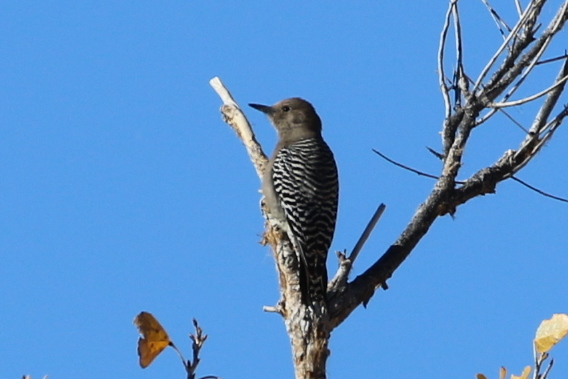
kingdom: Animalia
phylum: Chordata
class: Aves
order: Piciformes
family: Picidae
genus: Melanerpes
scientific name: Melanerpes uropygialis
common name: Gila woodpecker
